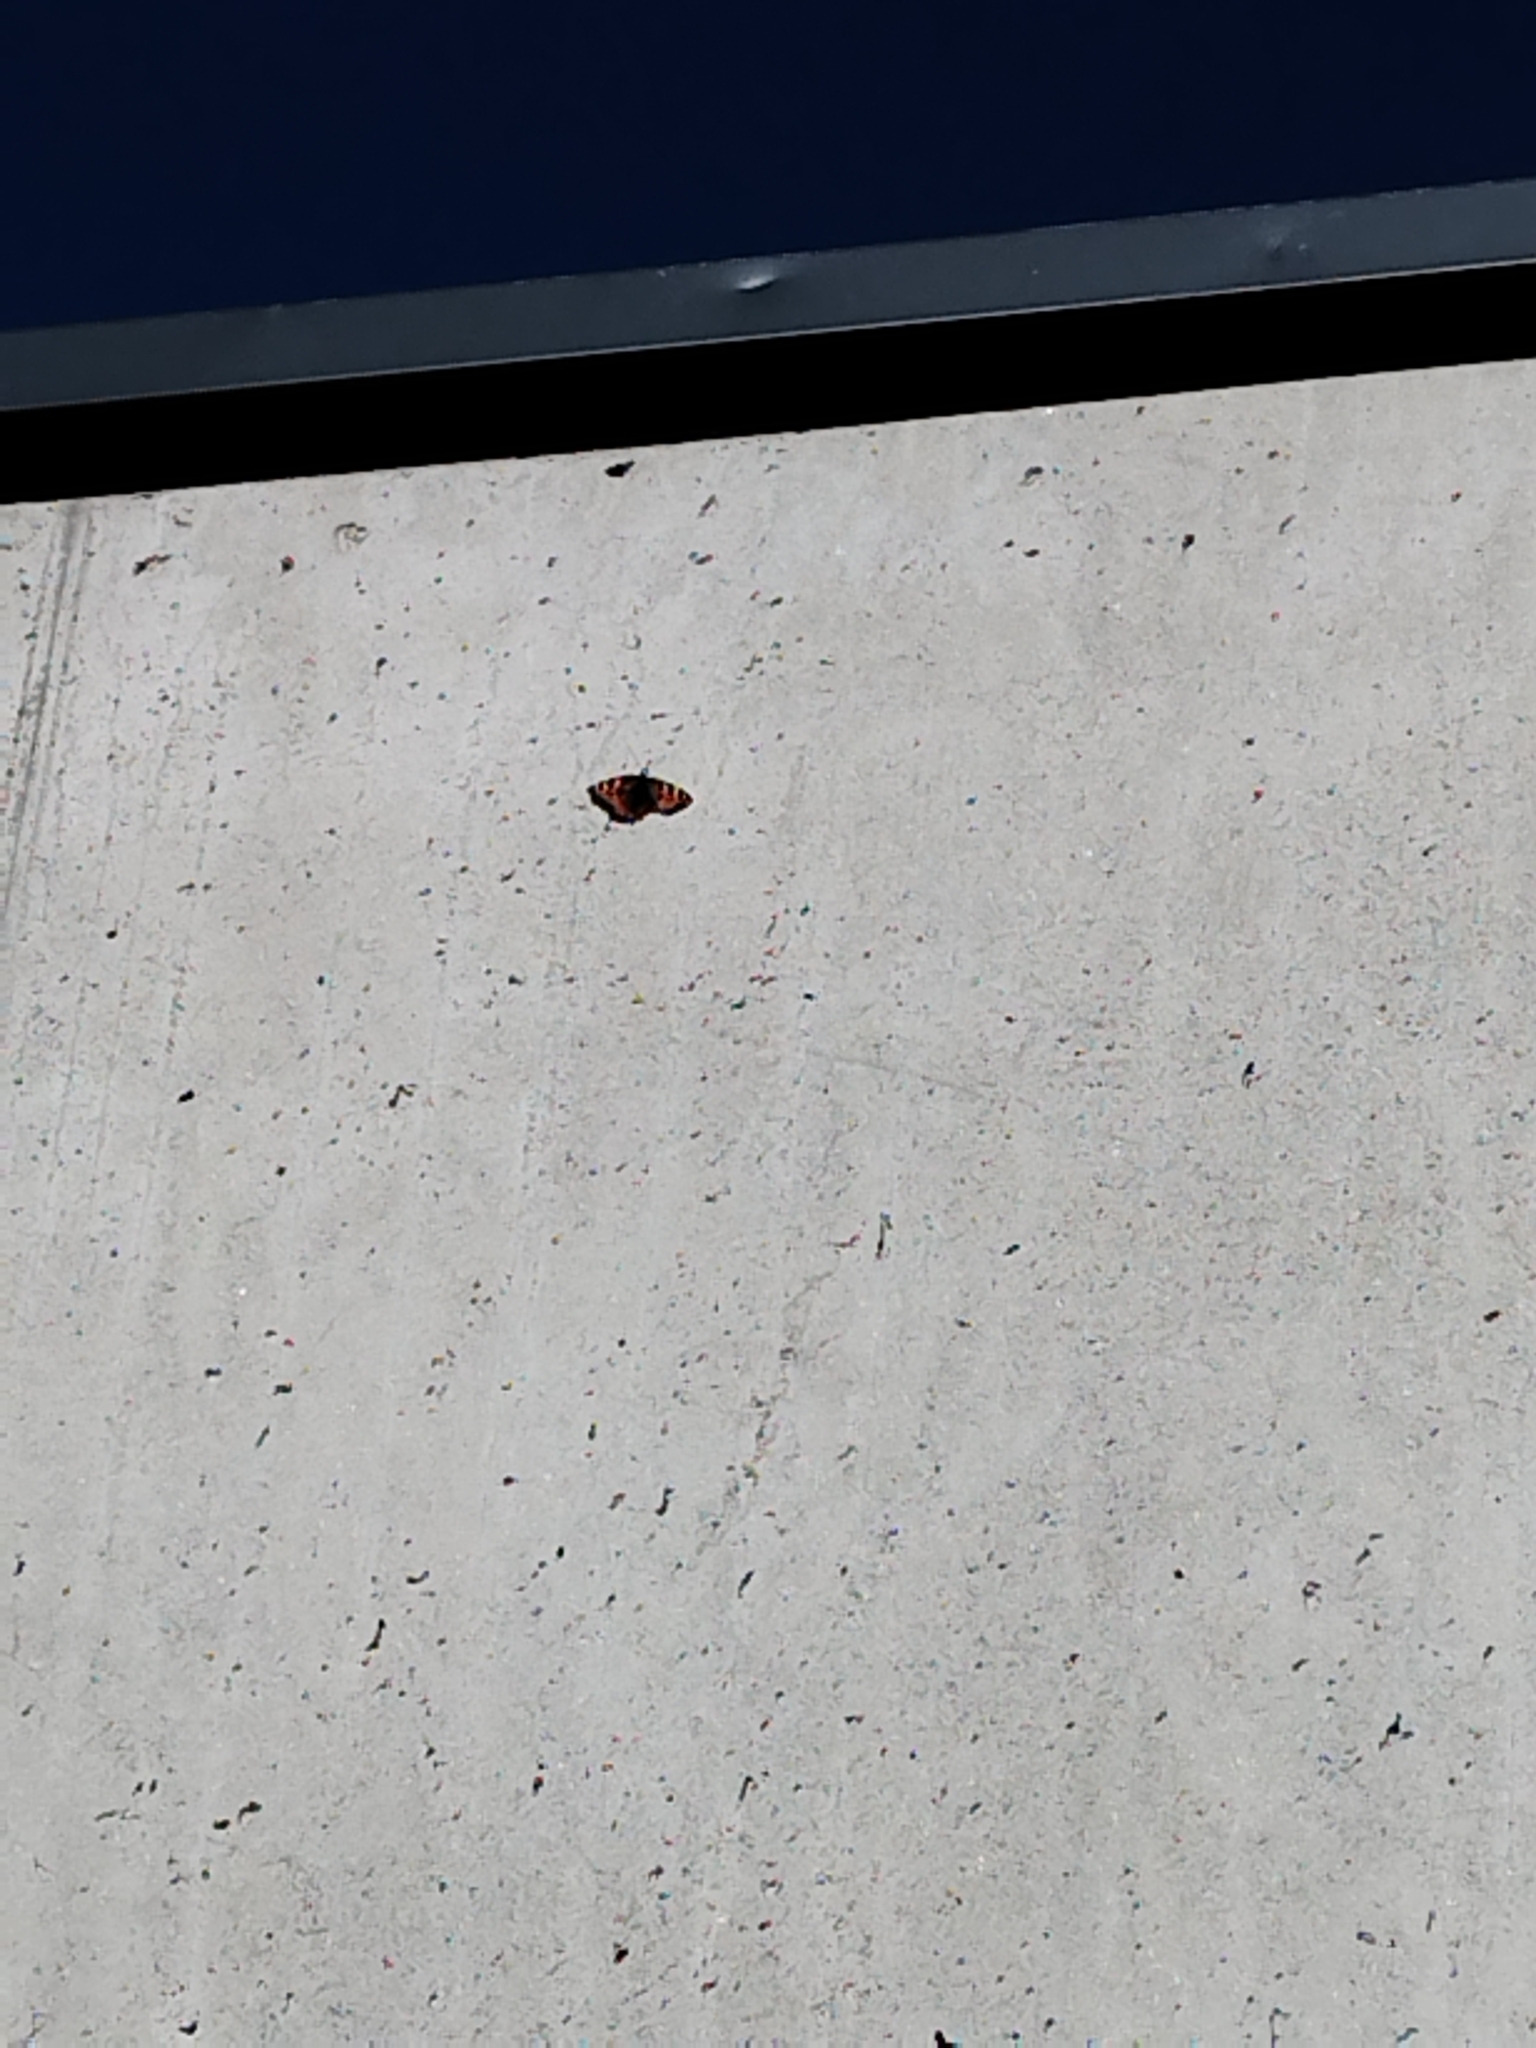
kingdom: Animalia
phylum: Arthropoda
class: Insecta
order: Lepidoptera
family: Nymphalidae
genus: Aglais
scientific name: Aglais urticae
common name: Small tortoiseshell
